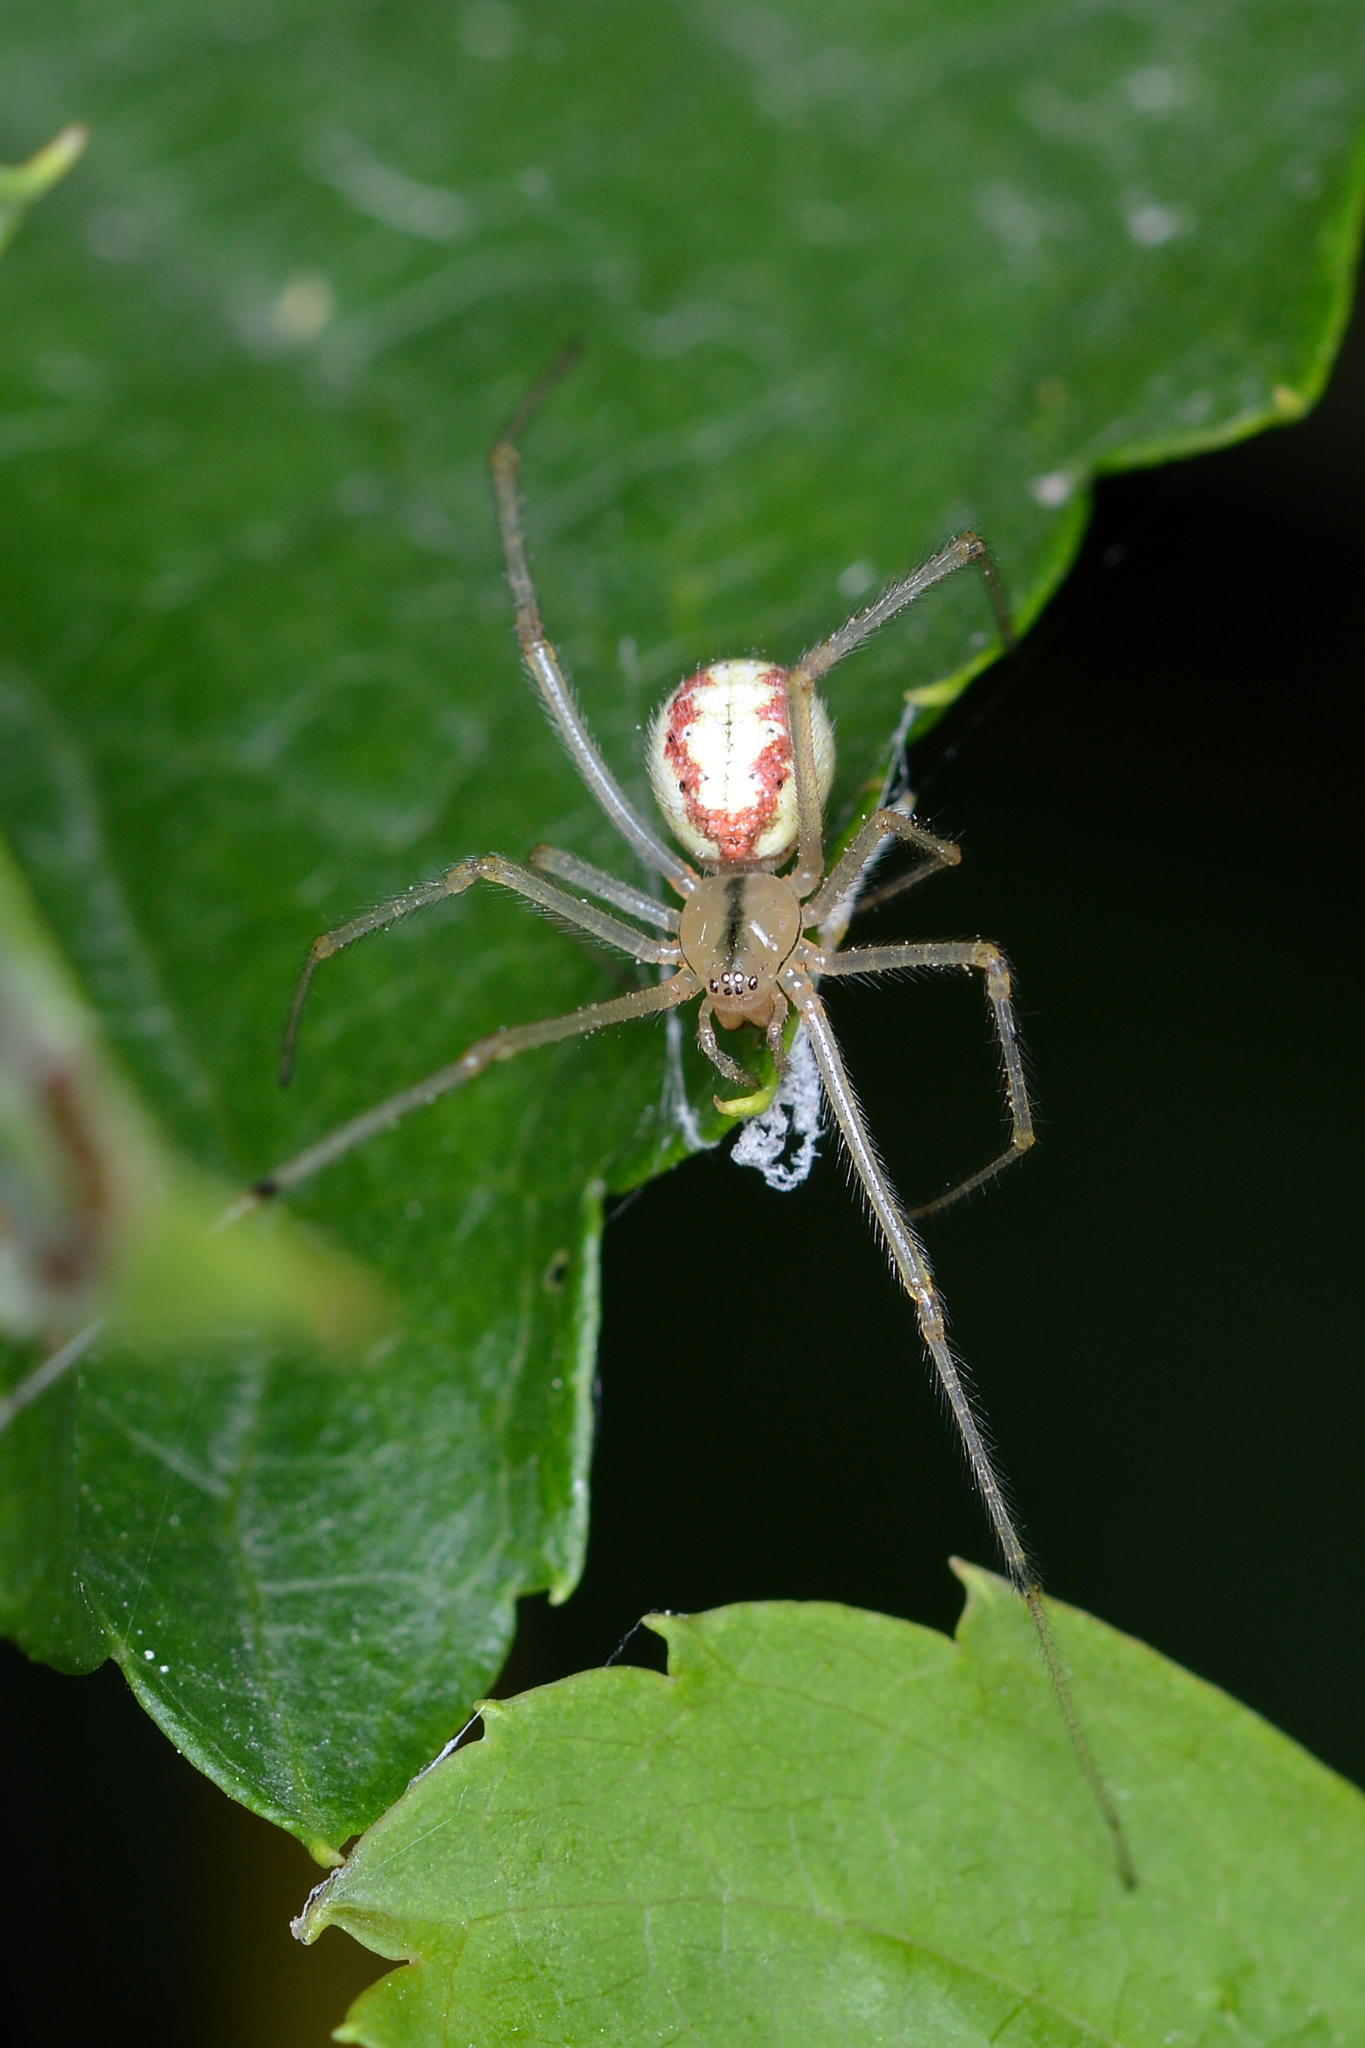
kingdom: Animalia
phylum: Arthropoda
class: Arachnida
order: Araneae
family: Theridiidae
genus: Enoplognatha
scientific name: Enoplognatha ovata
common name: Common candy-striped spider
